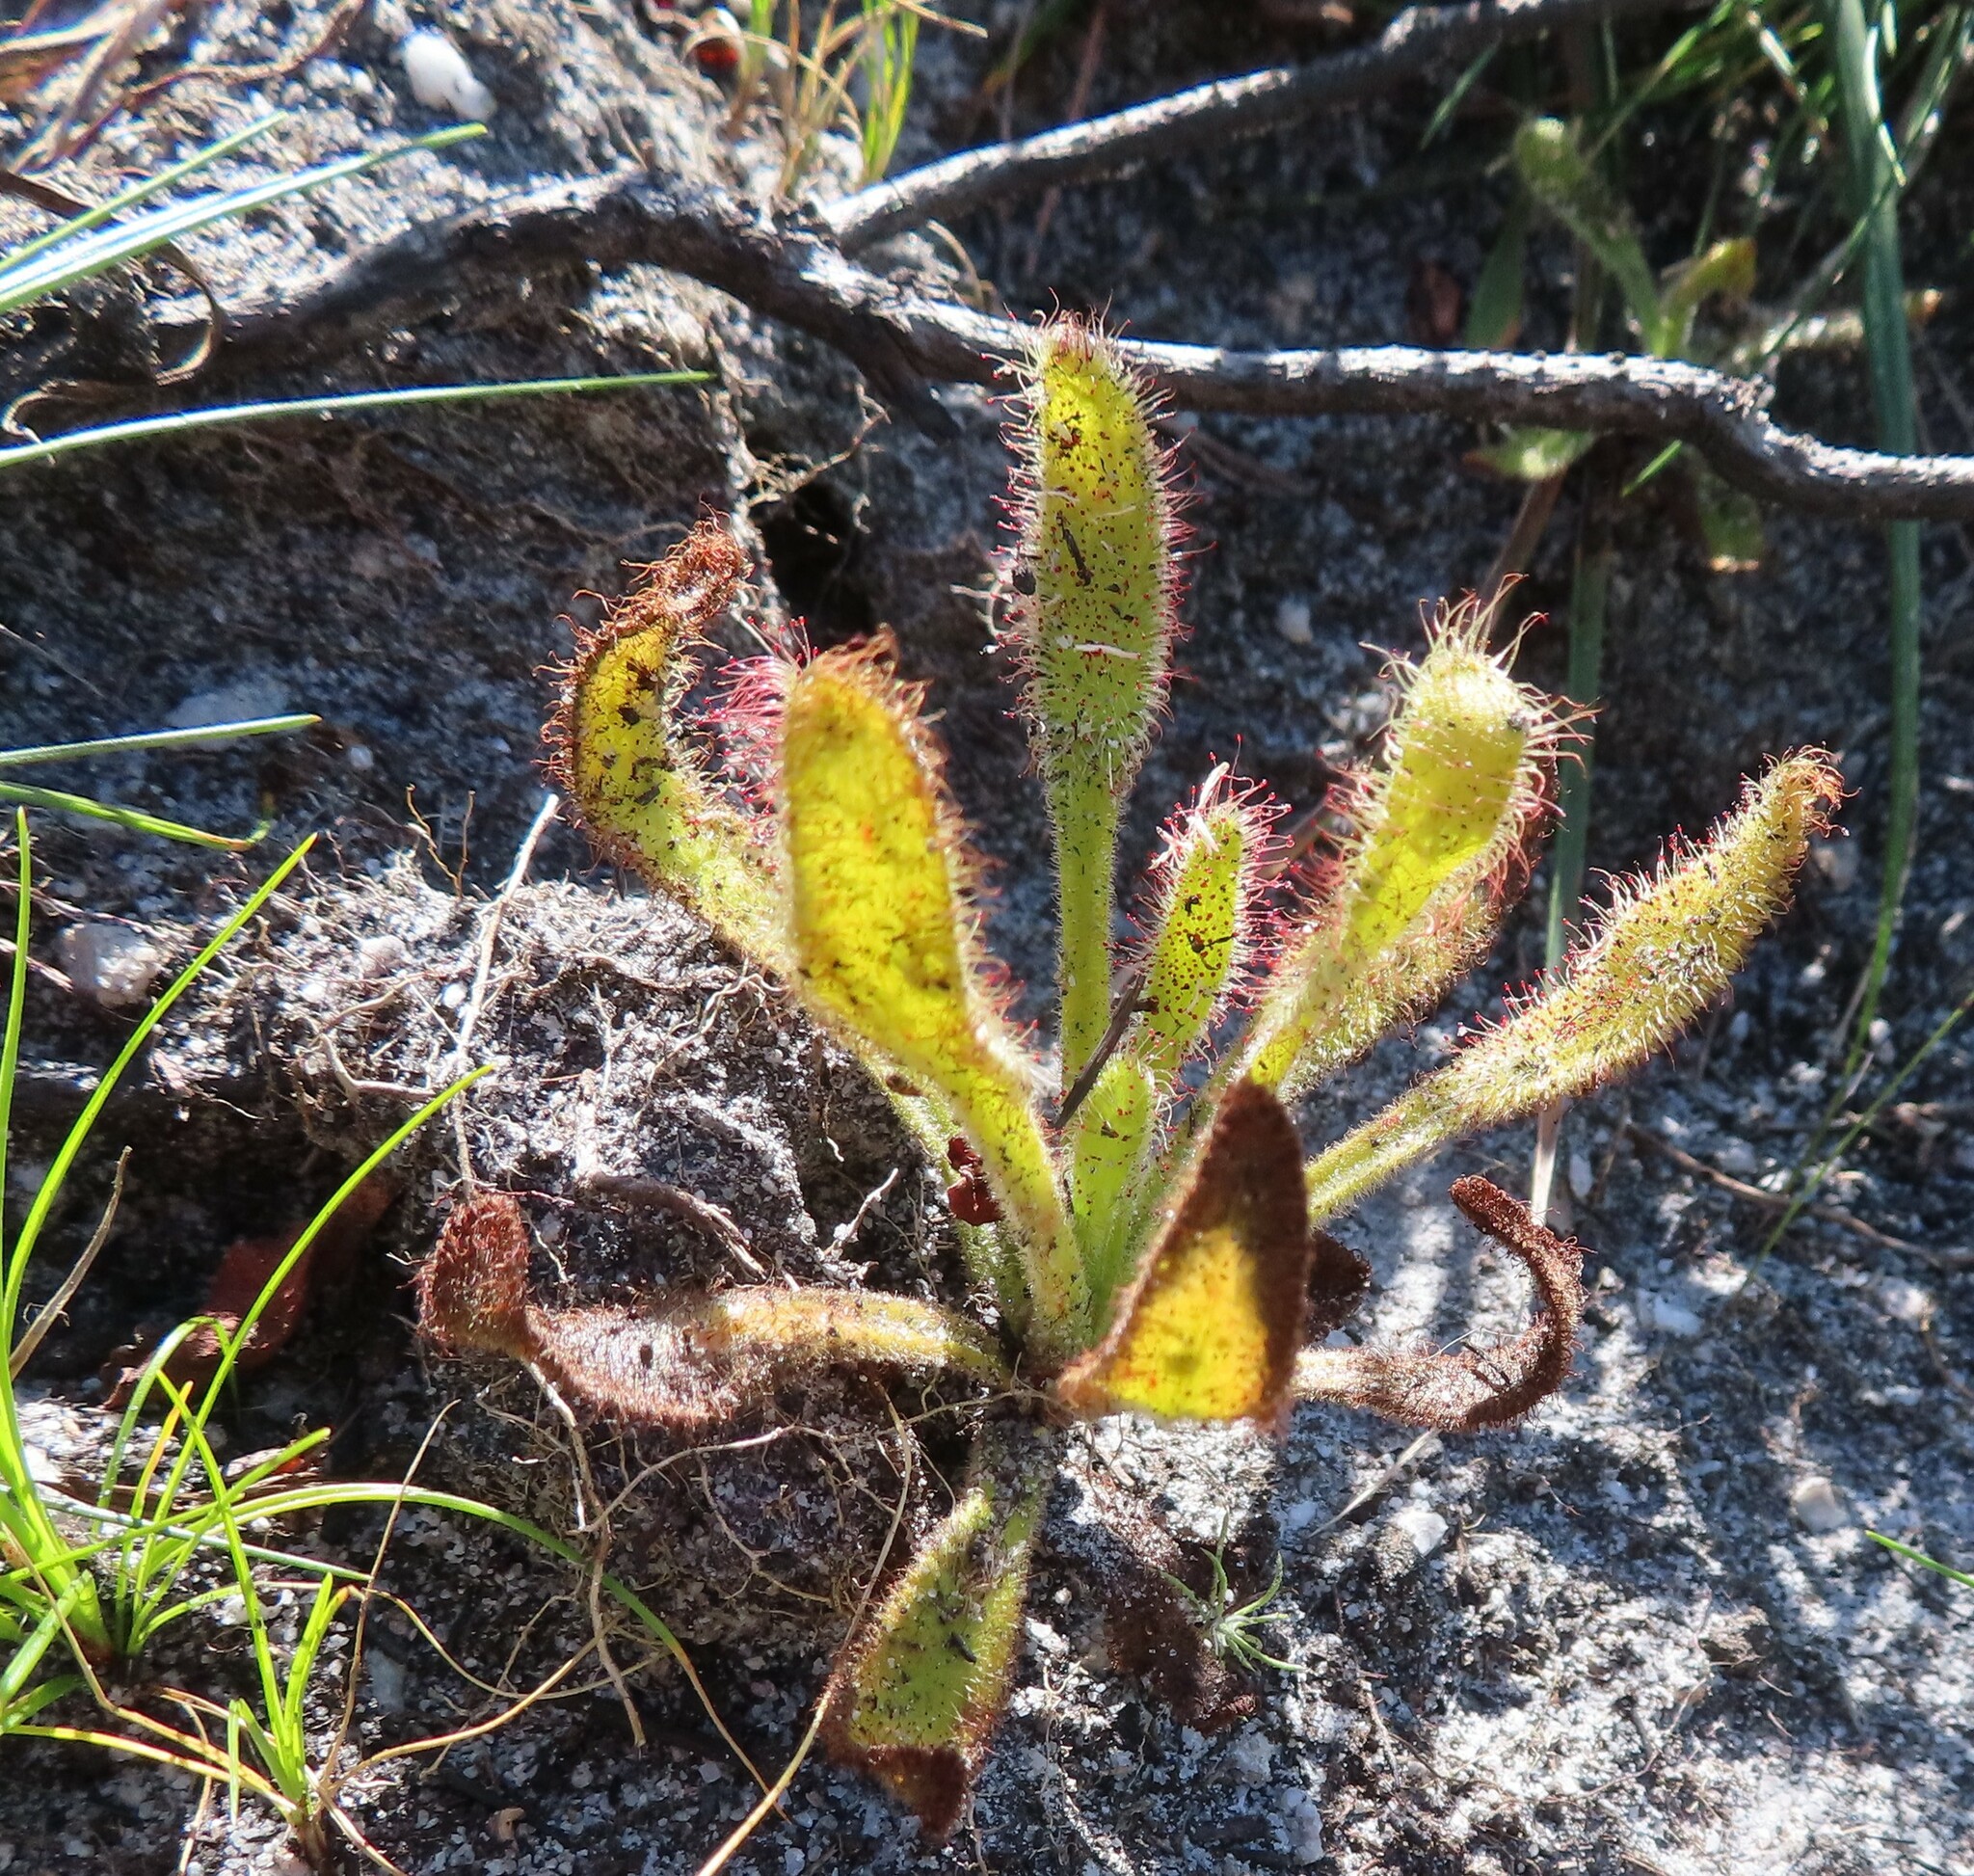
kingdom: Plantae
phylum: Tracheophyta
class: Magnoliopsida
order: Caryophyllales
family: Droseraceae
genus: Drosera
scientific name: Drosera hilaris
